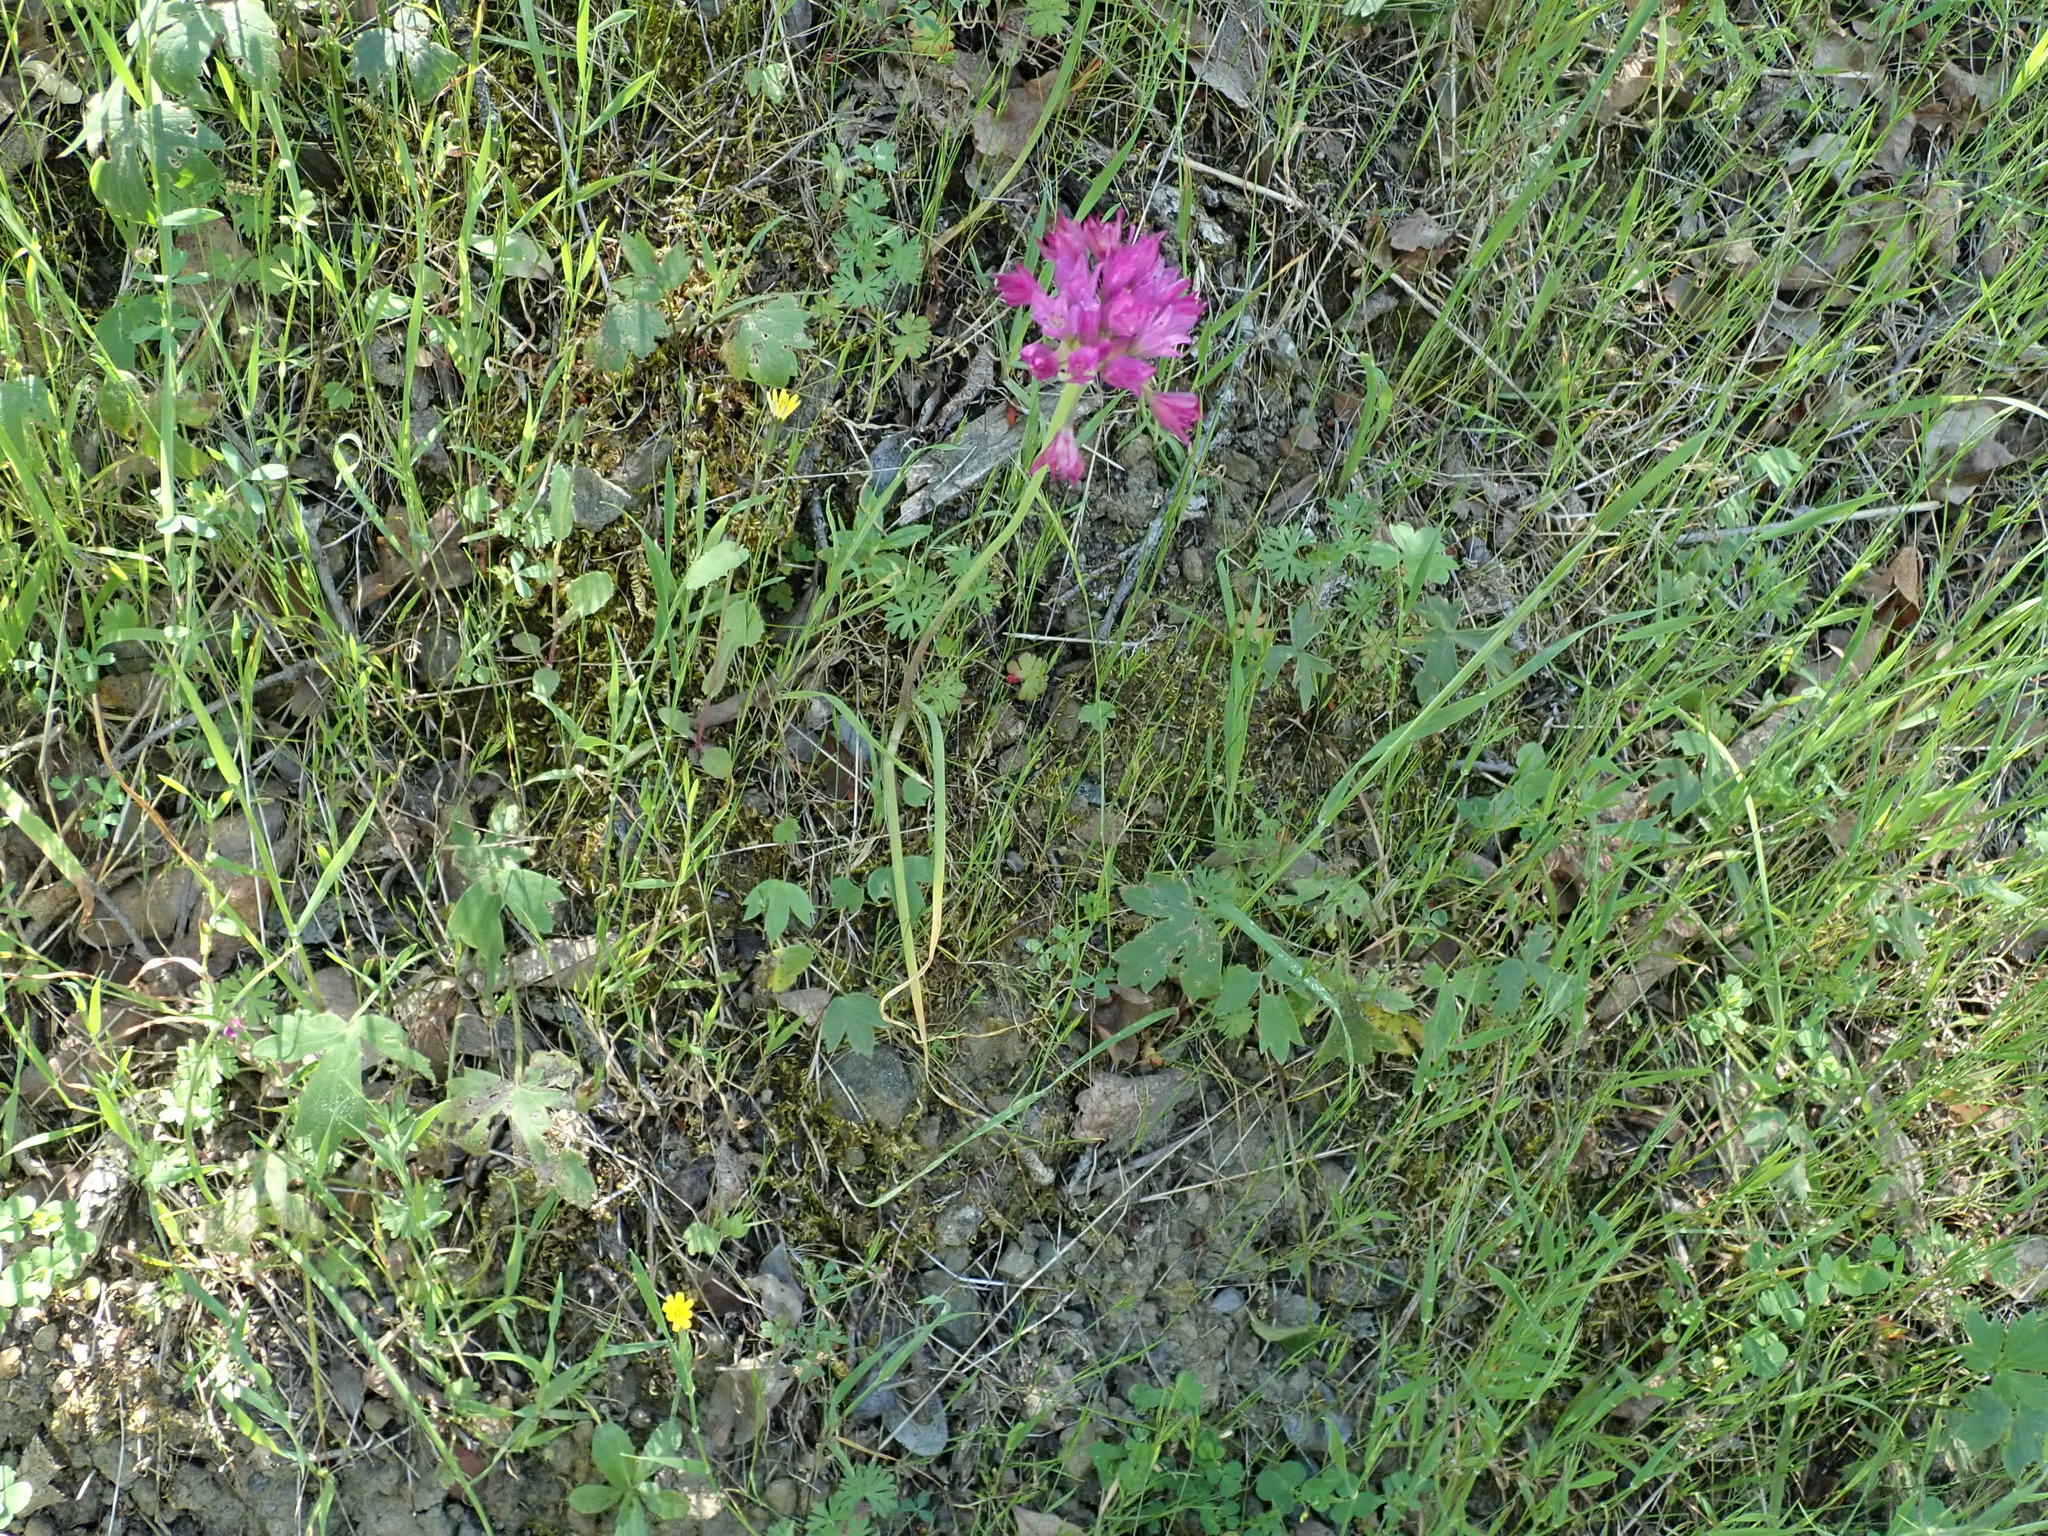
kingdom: Plantae
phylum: Tracheophyta
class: Liliopsida
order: Asparagales
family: Amaryllidaceae
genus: Allium
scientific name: Allium serra
